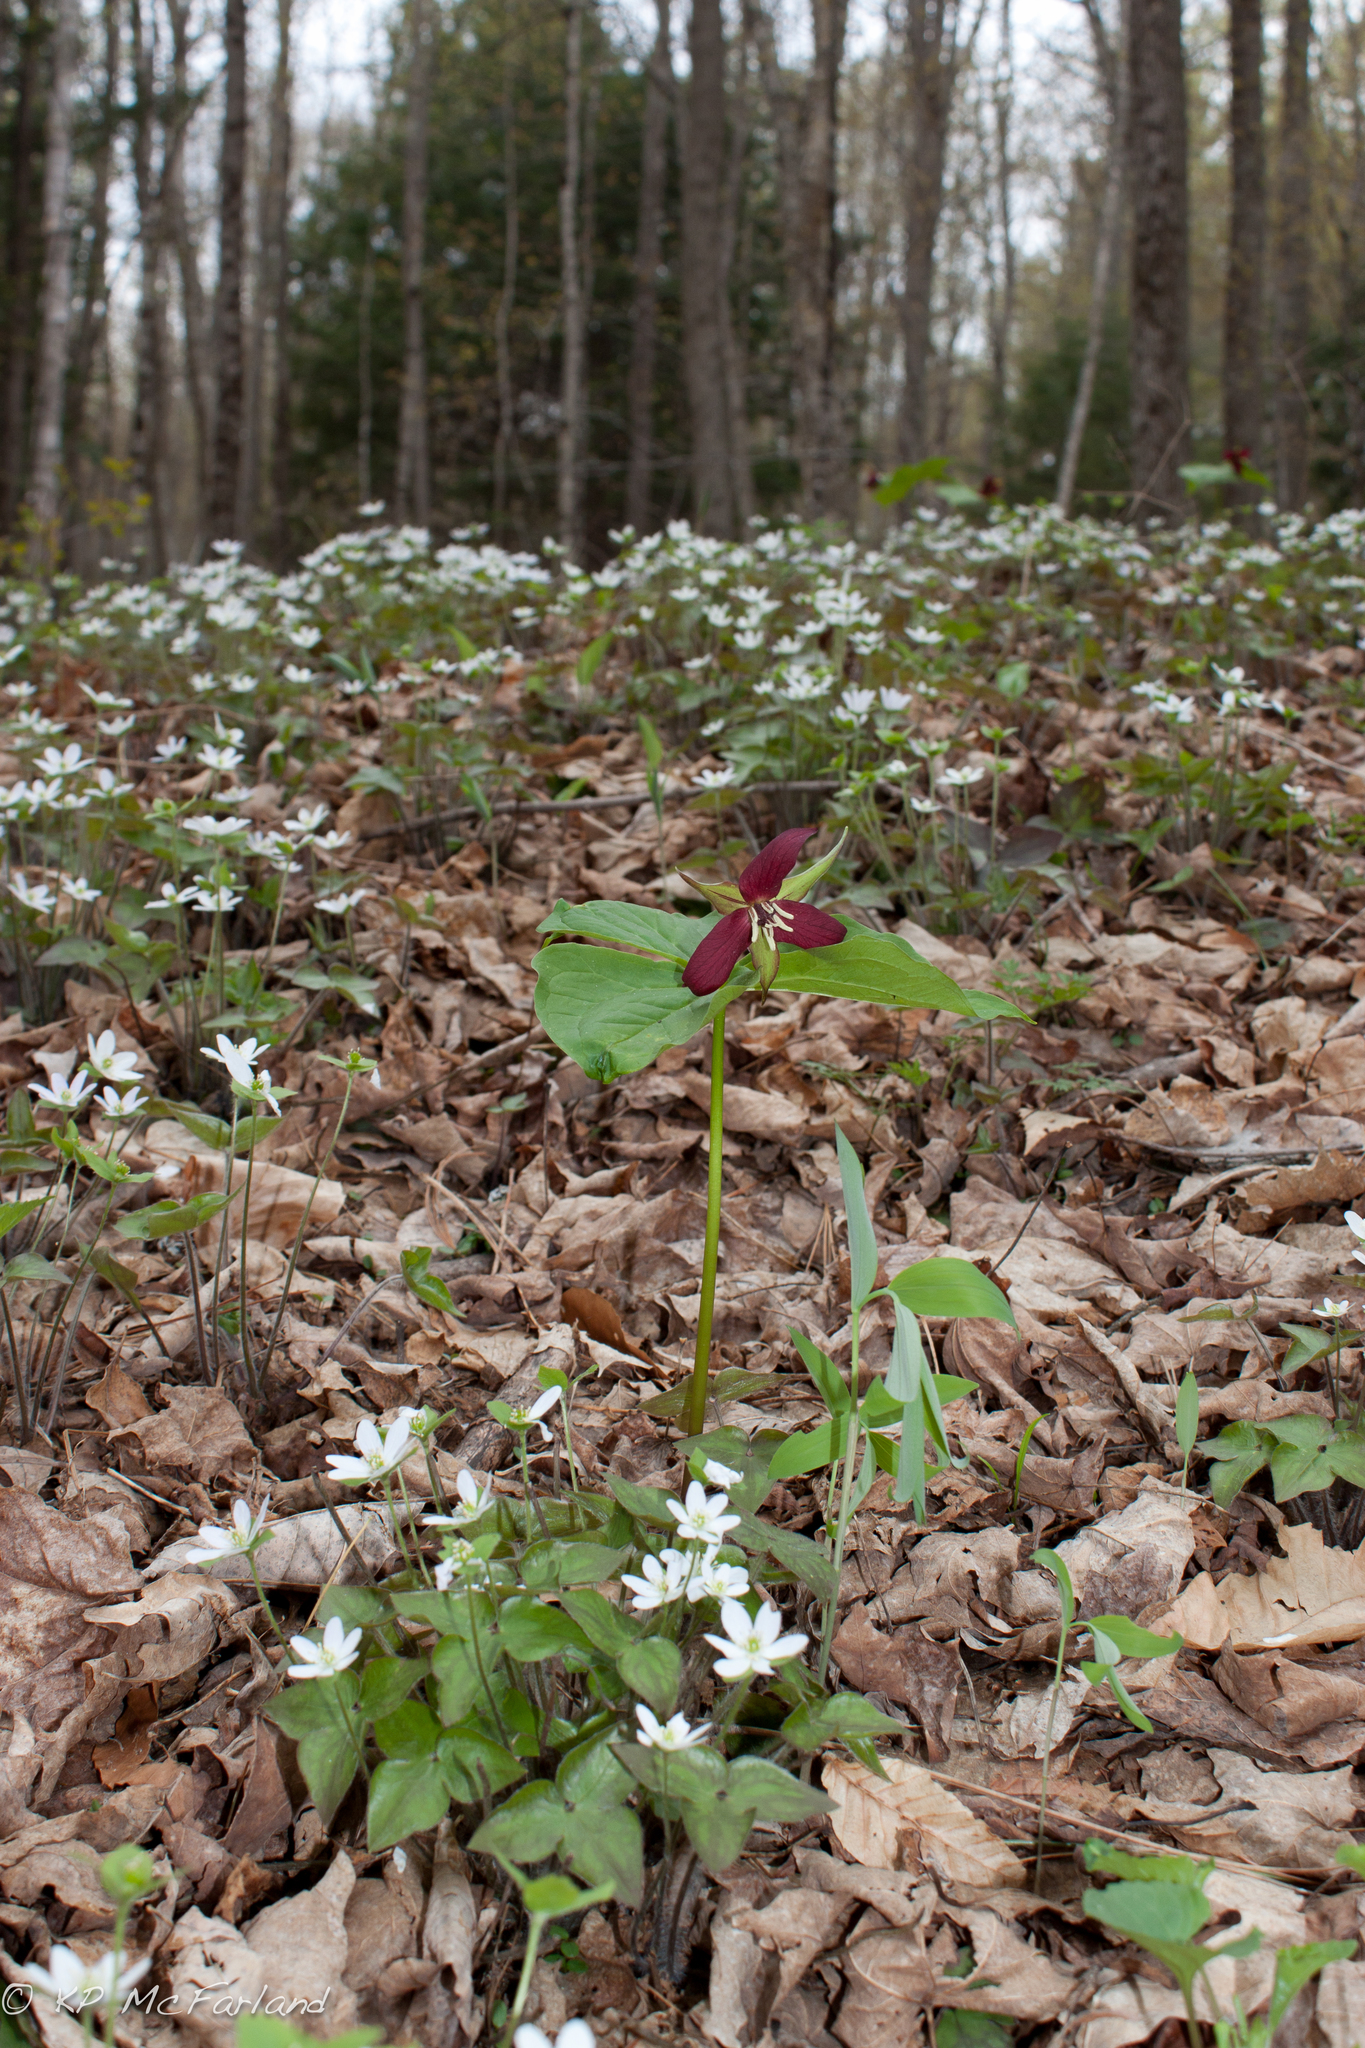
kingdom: Plantae
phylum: Tracheophyta
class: Liliopsida
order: Liliales
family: Melanthiaceae
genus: Trillium
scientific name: Trillium erectum
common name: Purple trillium
